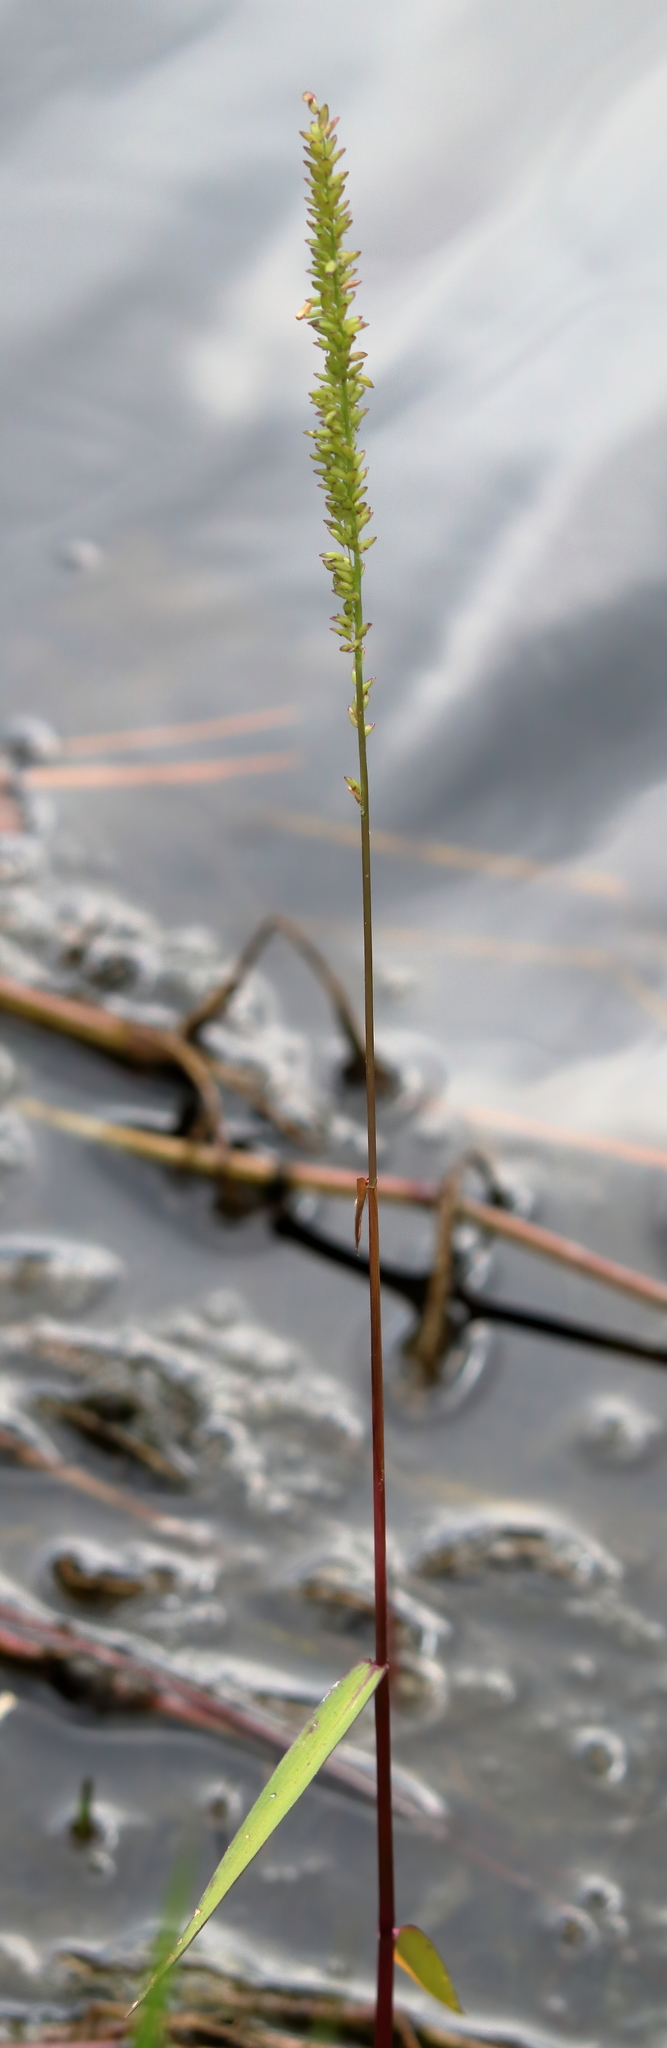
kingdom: Plantae
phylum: Tracheophyta
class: Liliopsida
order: Poales
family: Poaceae
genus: Sacciolepis
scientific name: Sacciolepis striata
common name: American cupscale
